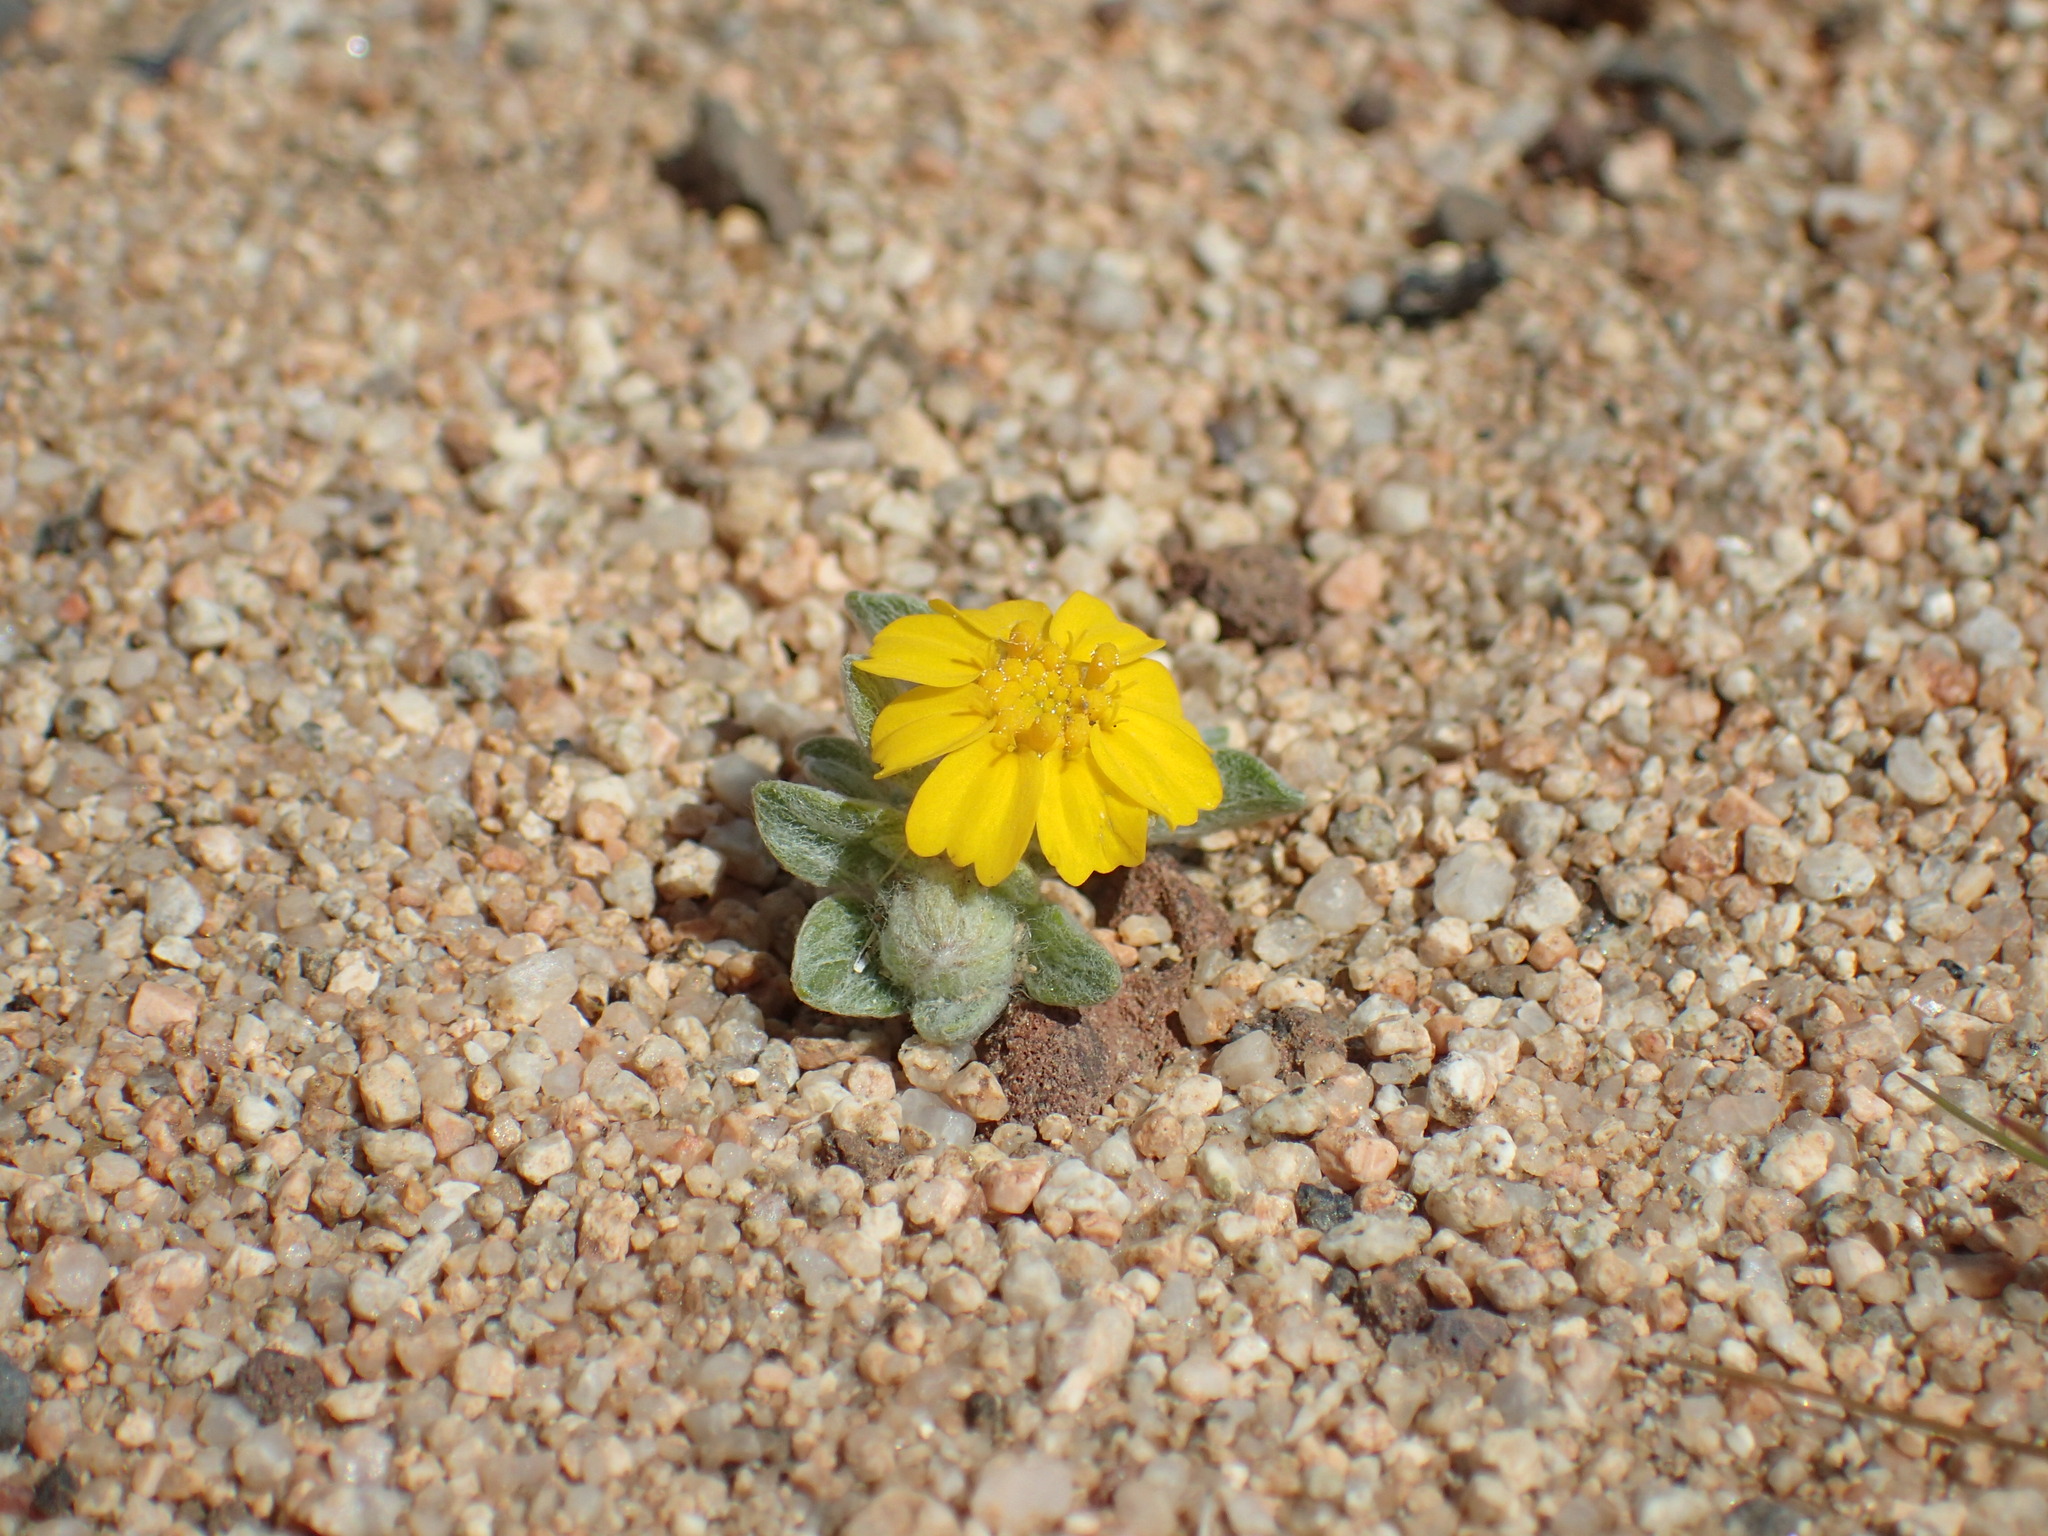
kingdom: Plantae
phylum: Tracheophyta
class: Magnoliopsida
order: Asterales
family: Asteraceae
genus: Eriophyllum
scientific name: Eriophyllum wallacei
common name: Wallace's woolly daisy
